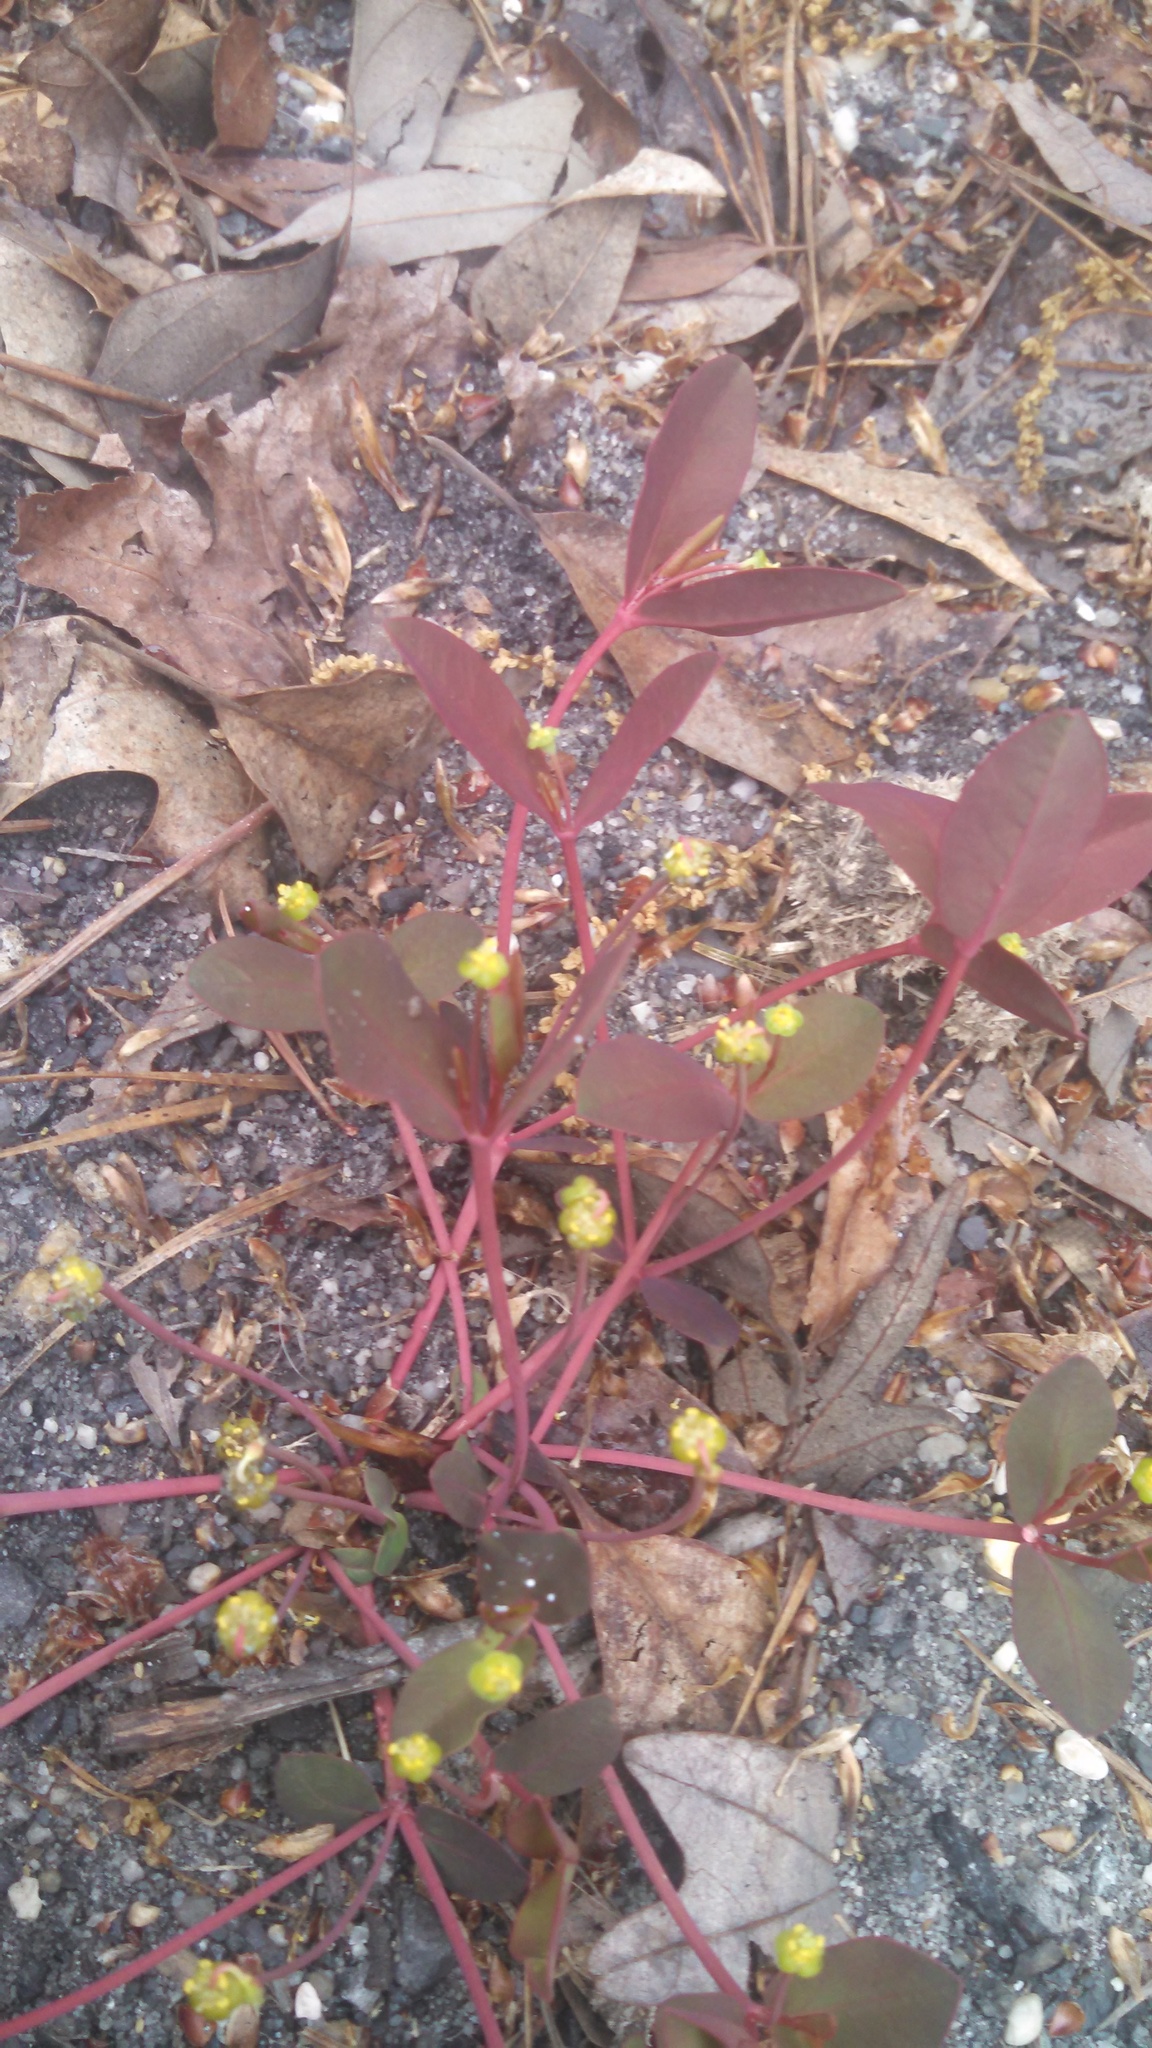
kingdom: Plantae
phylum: Tracheophyta
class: Magnoliopsida
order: Malpighiales
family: Euphorbiaceae
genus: Euphorbia
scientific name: Euphorbia ipecacuanhae
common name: Carolina ipecac
